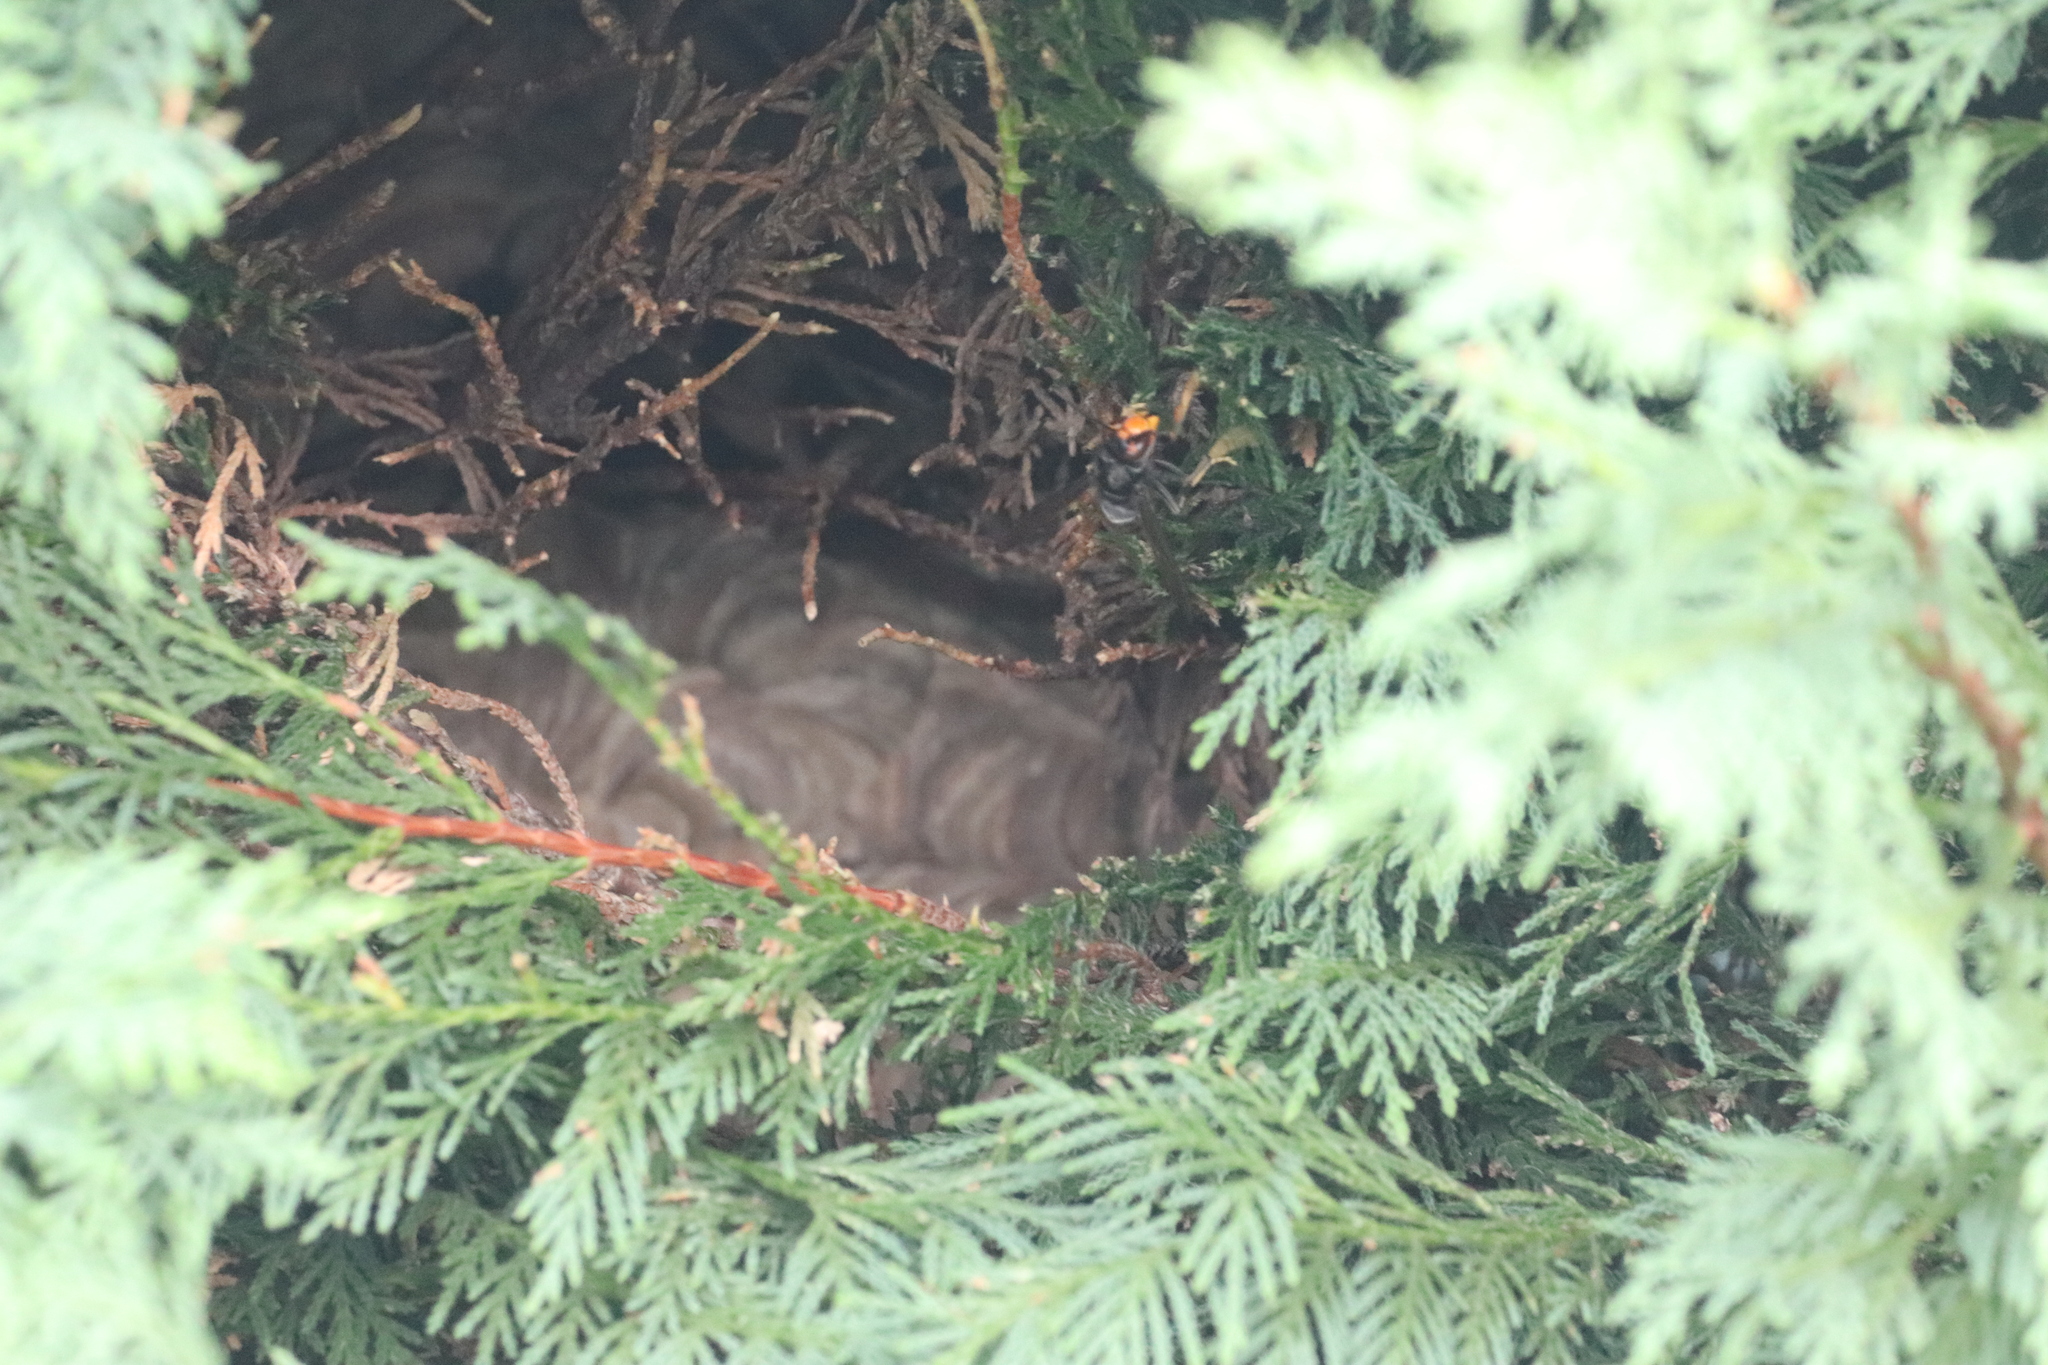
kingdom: Animalia
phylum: Arthropoda
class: Insecta
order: Hymenoptera
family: Vespidae
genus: Vespa
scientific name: Vespa velutina
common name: Asian hornet
